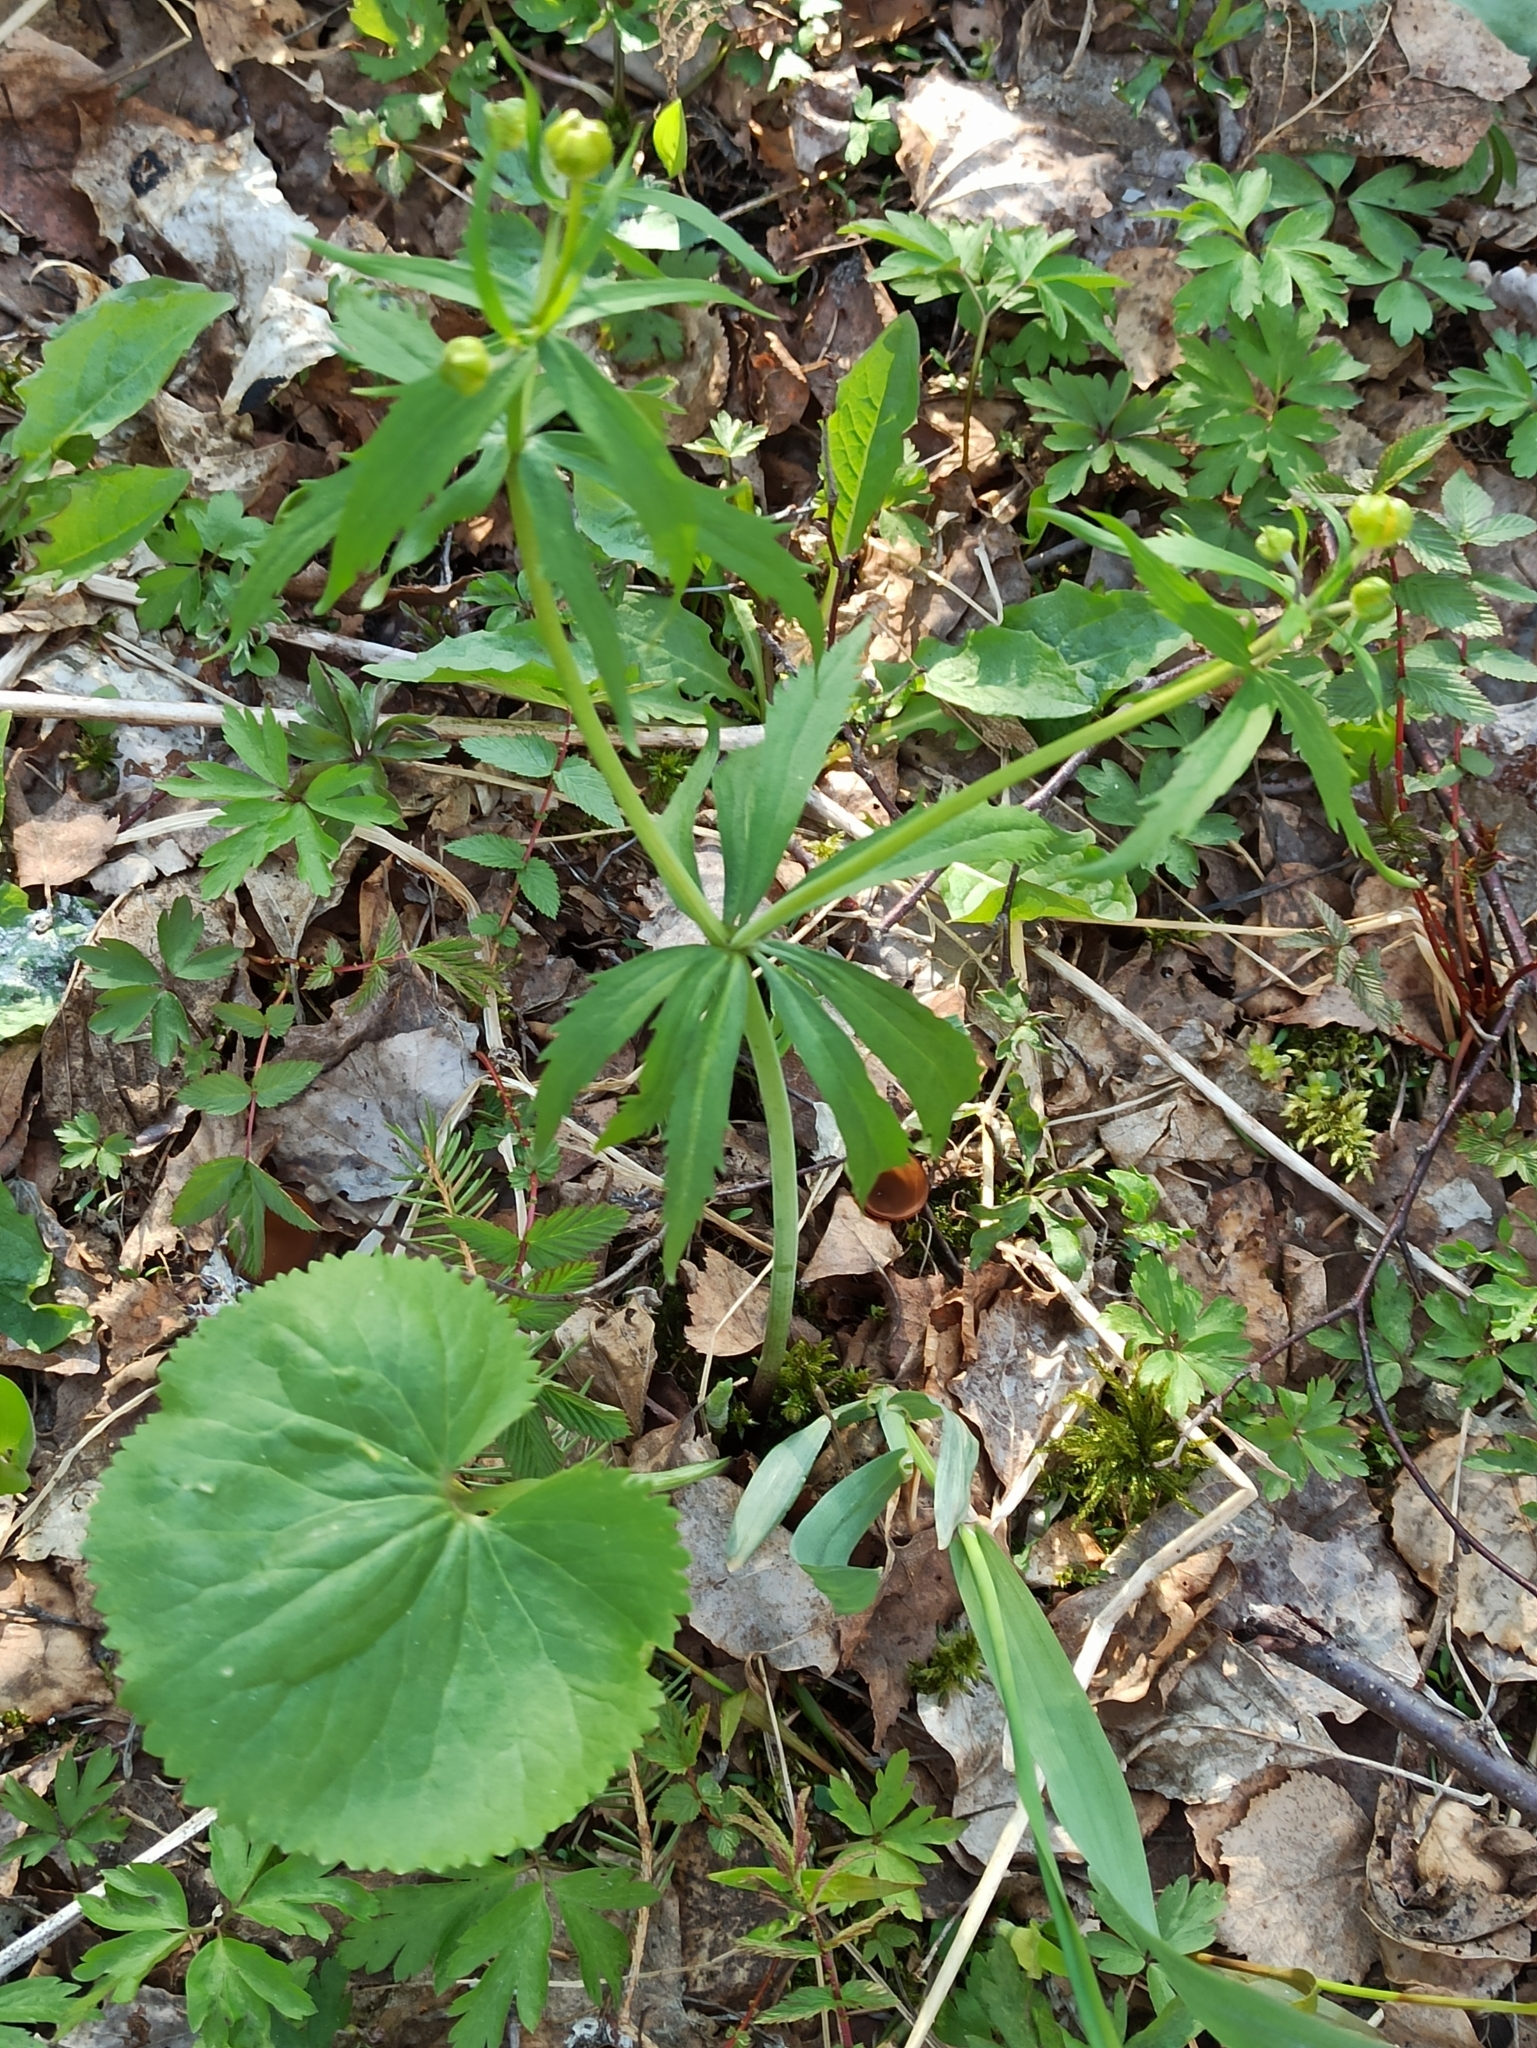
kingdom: Plantae
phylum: Tracheophyta
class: Magnoliopsida
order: Ranunculales
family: Ranunculaceae
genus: Ranunculus
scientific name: Ranunculus cassubicus
